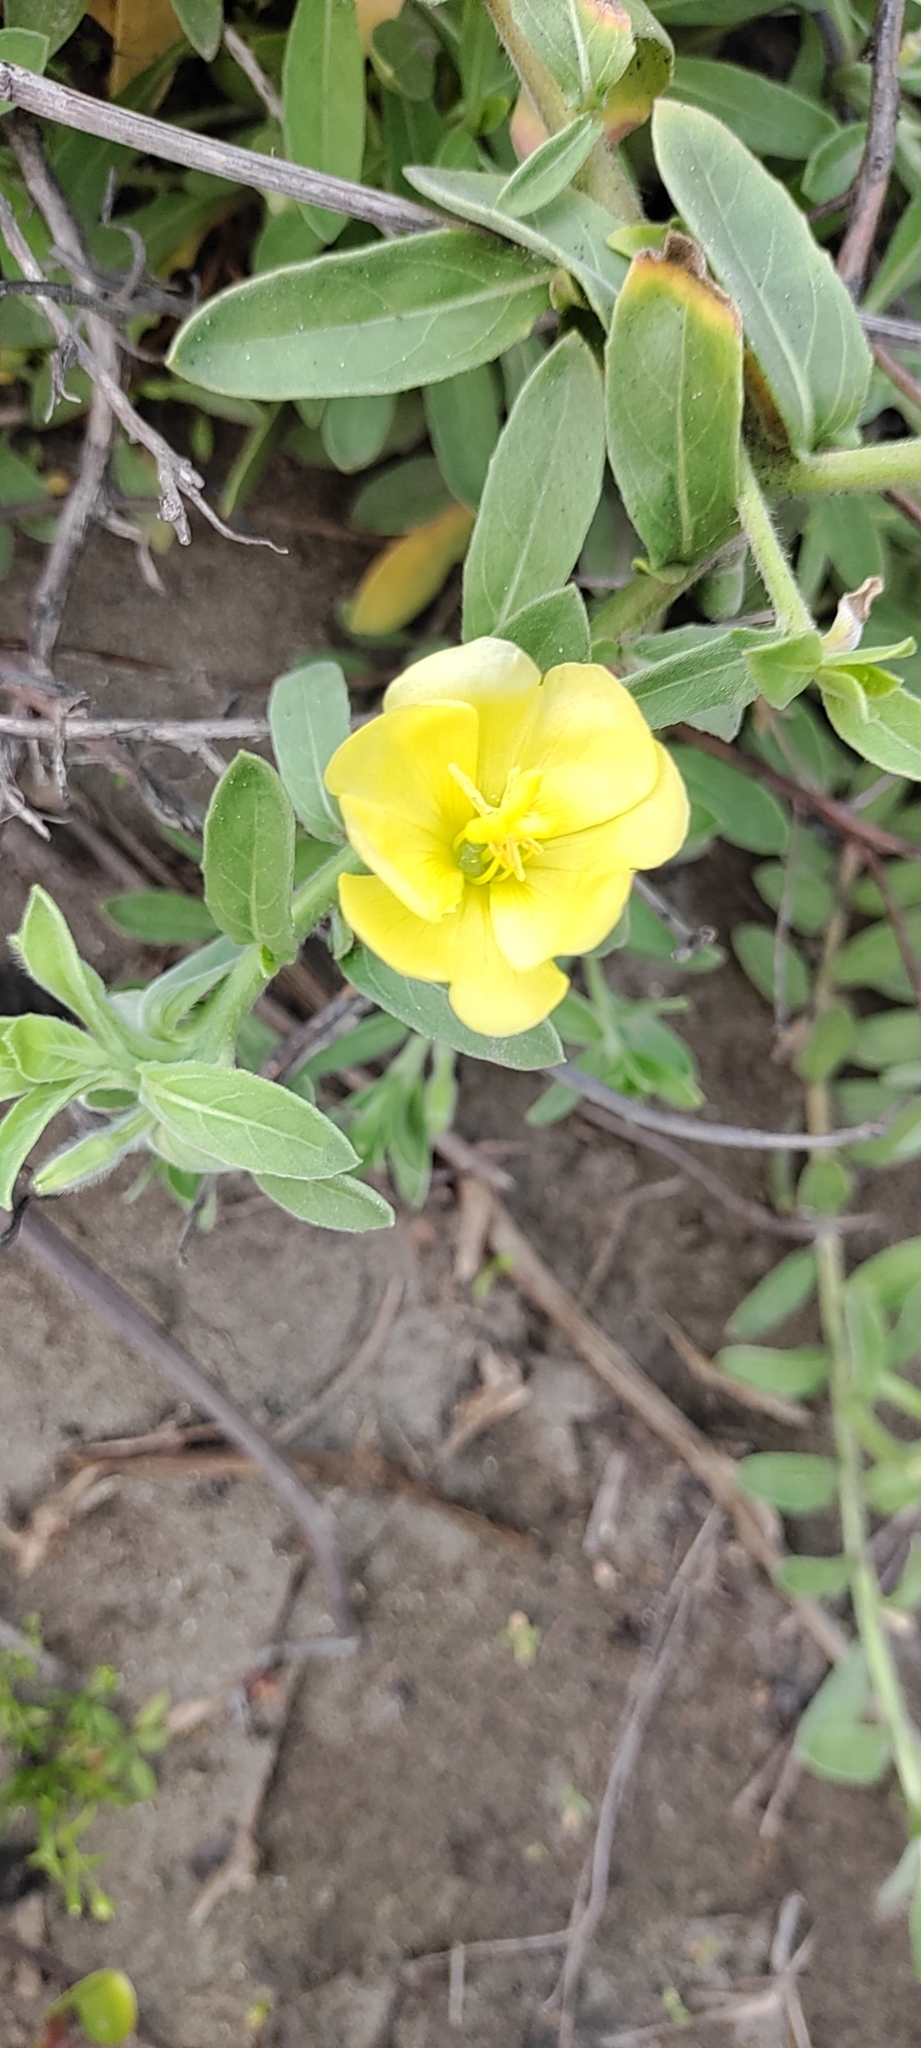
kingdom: Plantae
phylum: Tracheophyta
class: Magnoliopsida
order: Myrtales
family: Onagraceae
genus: Oenothera
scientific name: Oenothera laciniata
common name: Cut-leaved evening-primrose
